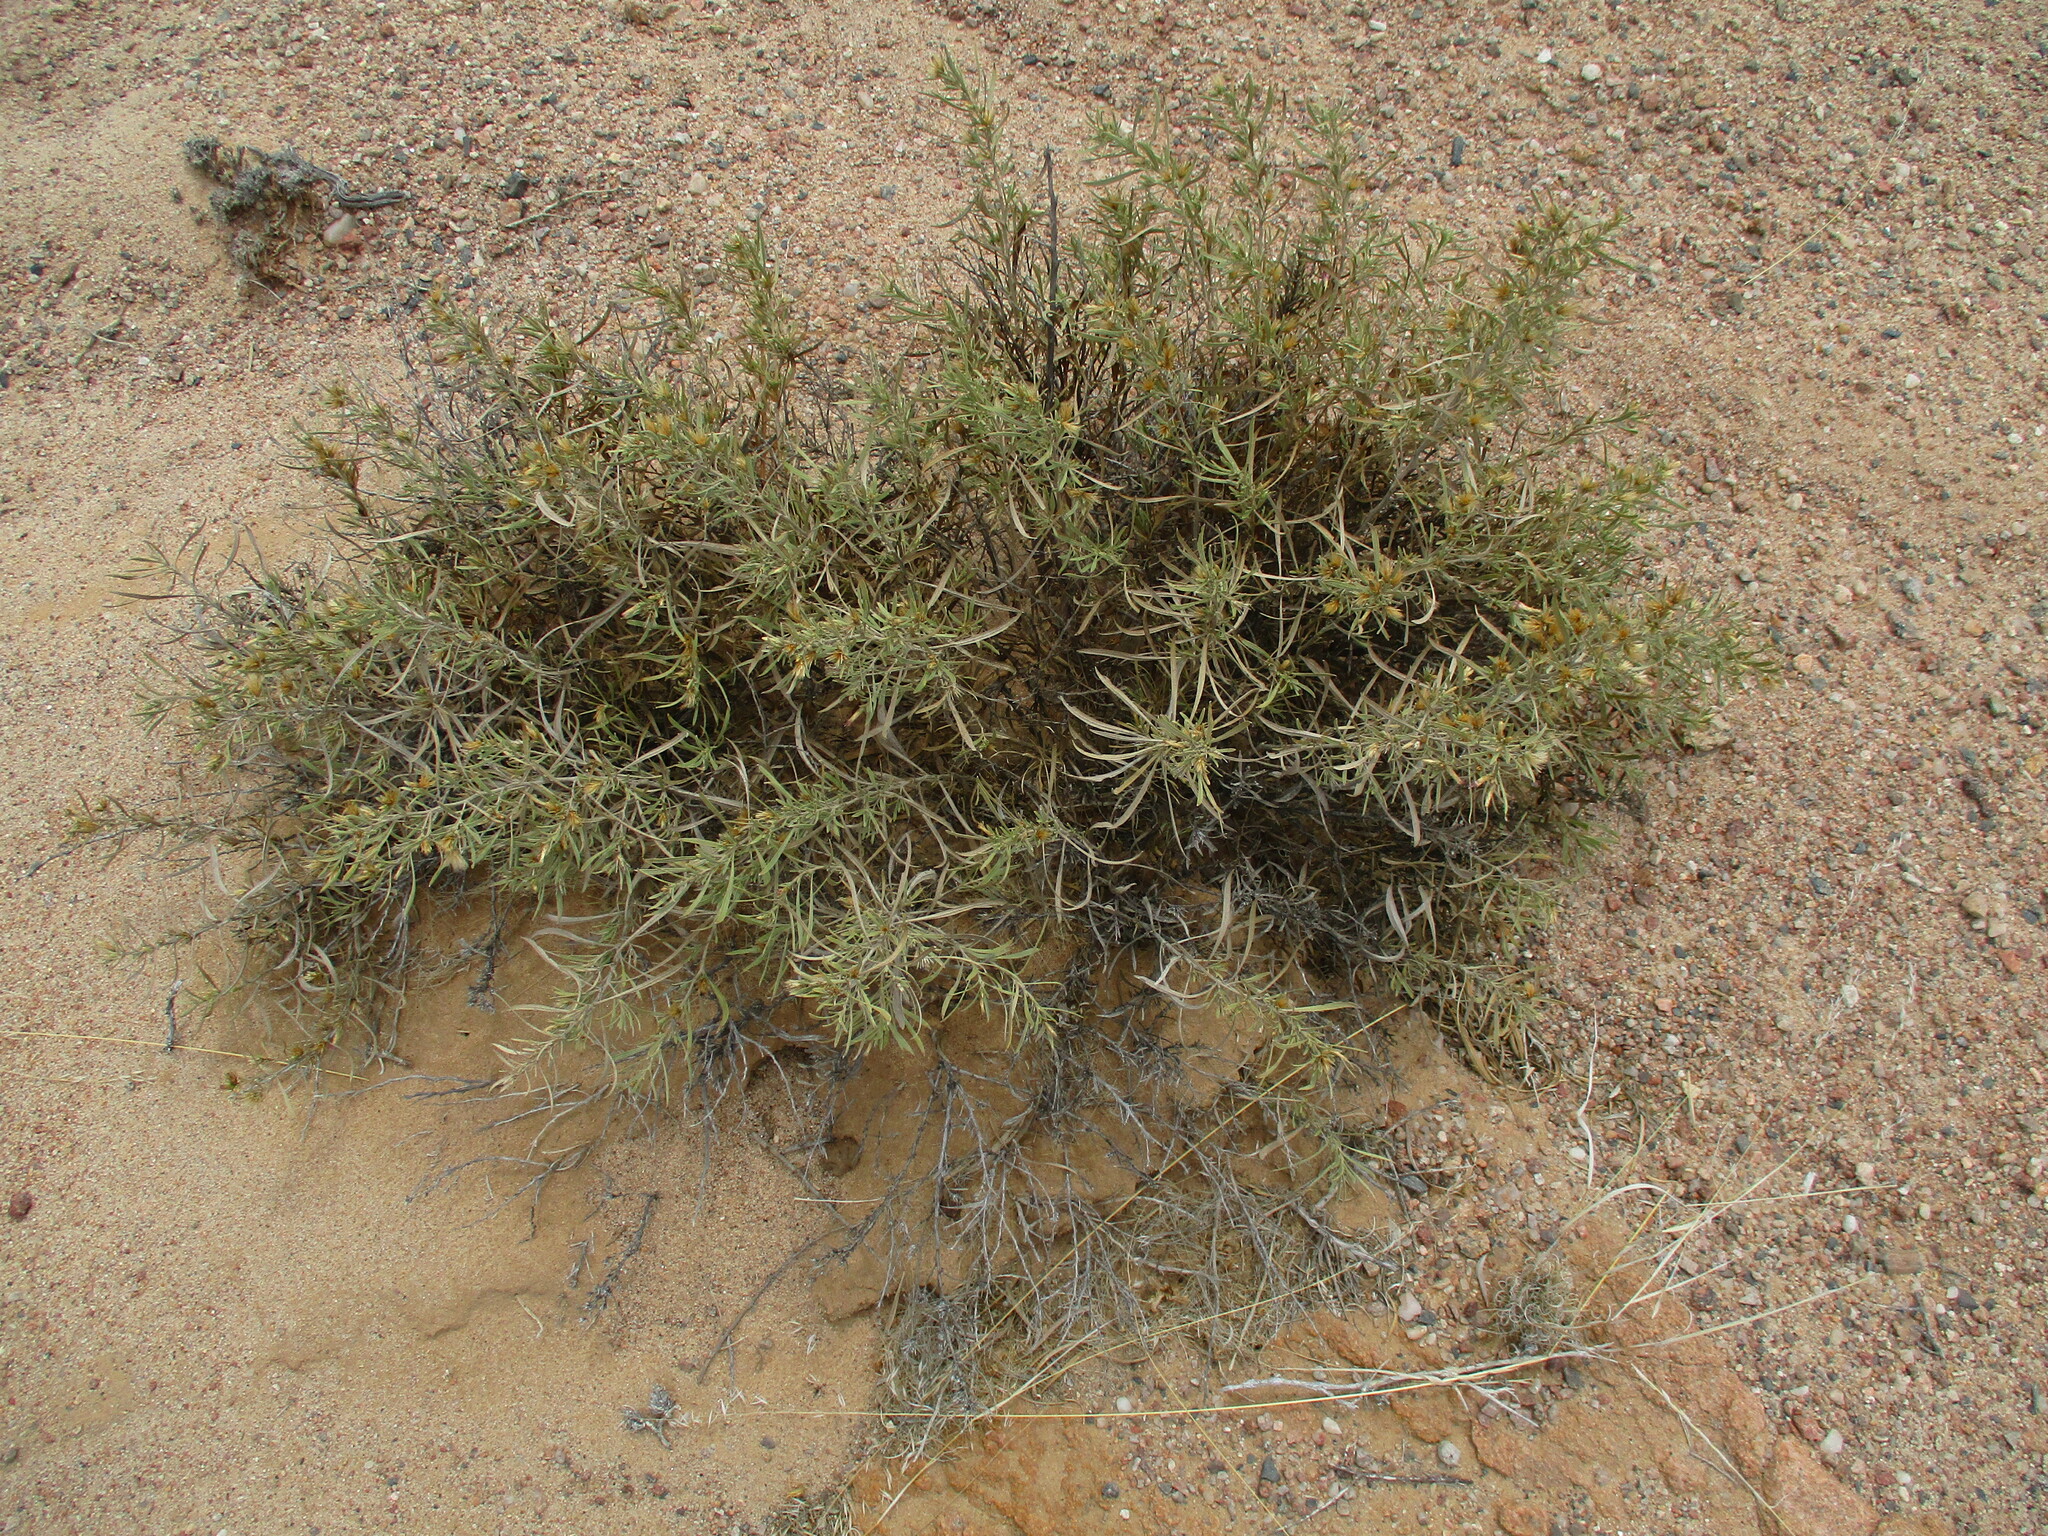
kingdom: Plantae
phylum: Tracheophyta
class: Magnoliopsida
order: Asterales
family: Asteraceae
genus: Pechuel-loeschea
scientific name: Pechuel-loeschea leubnitziae
